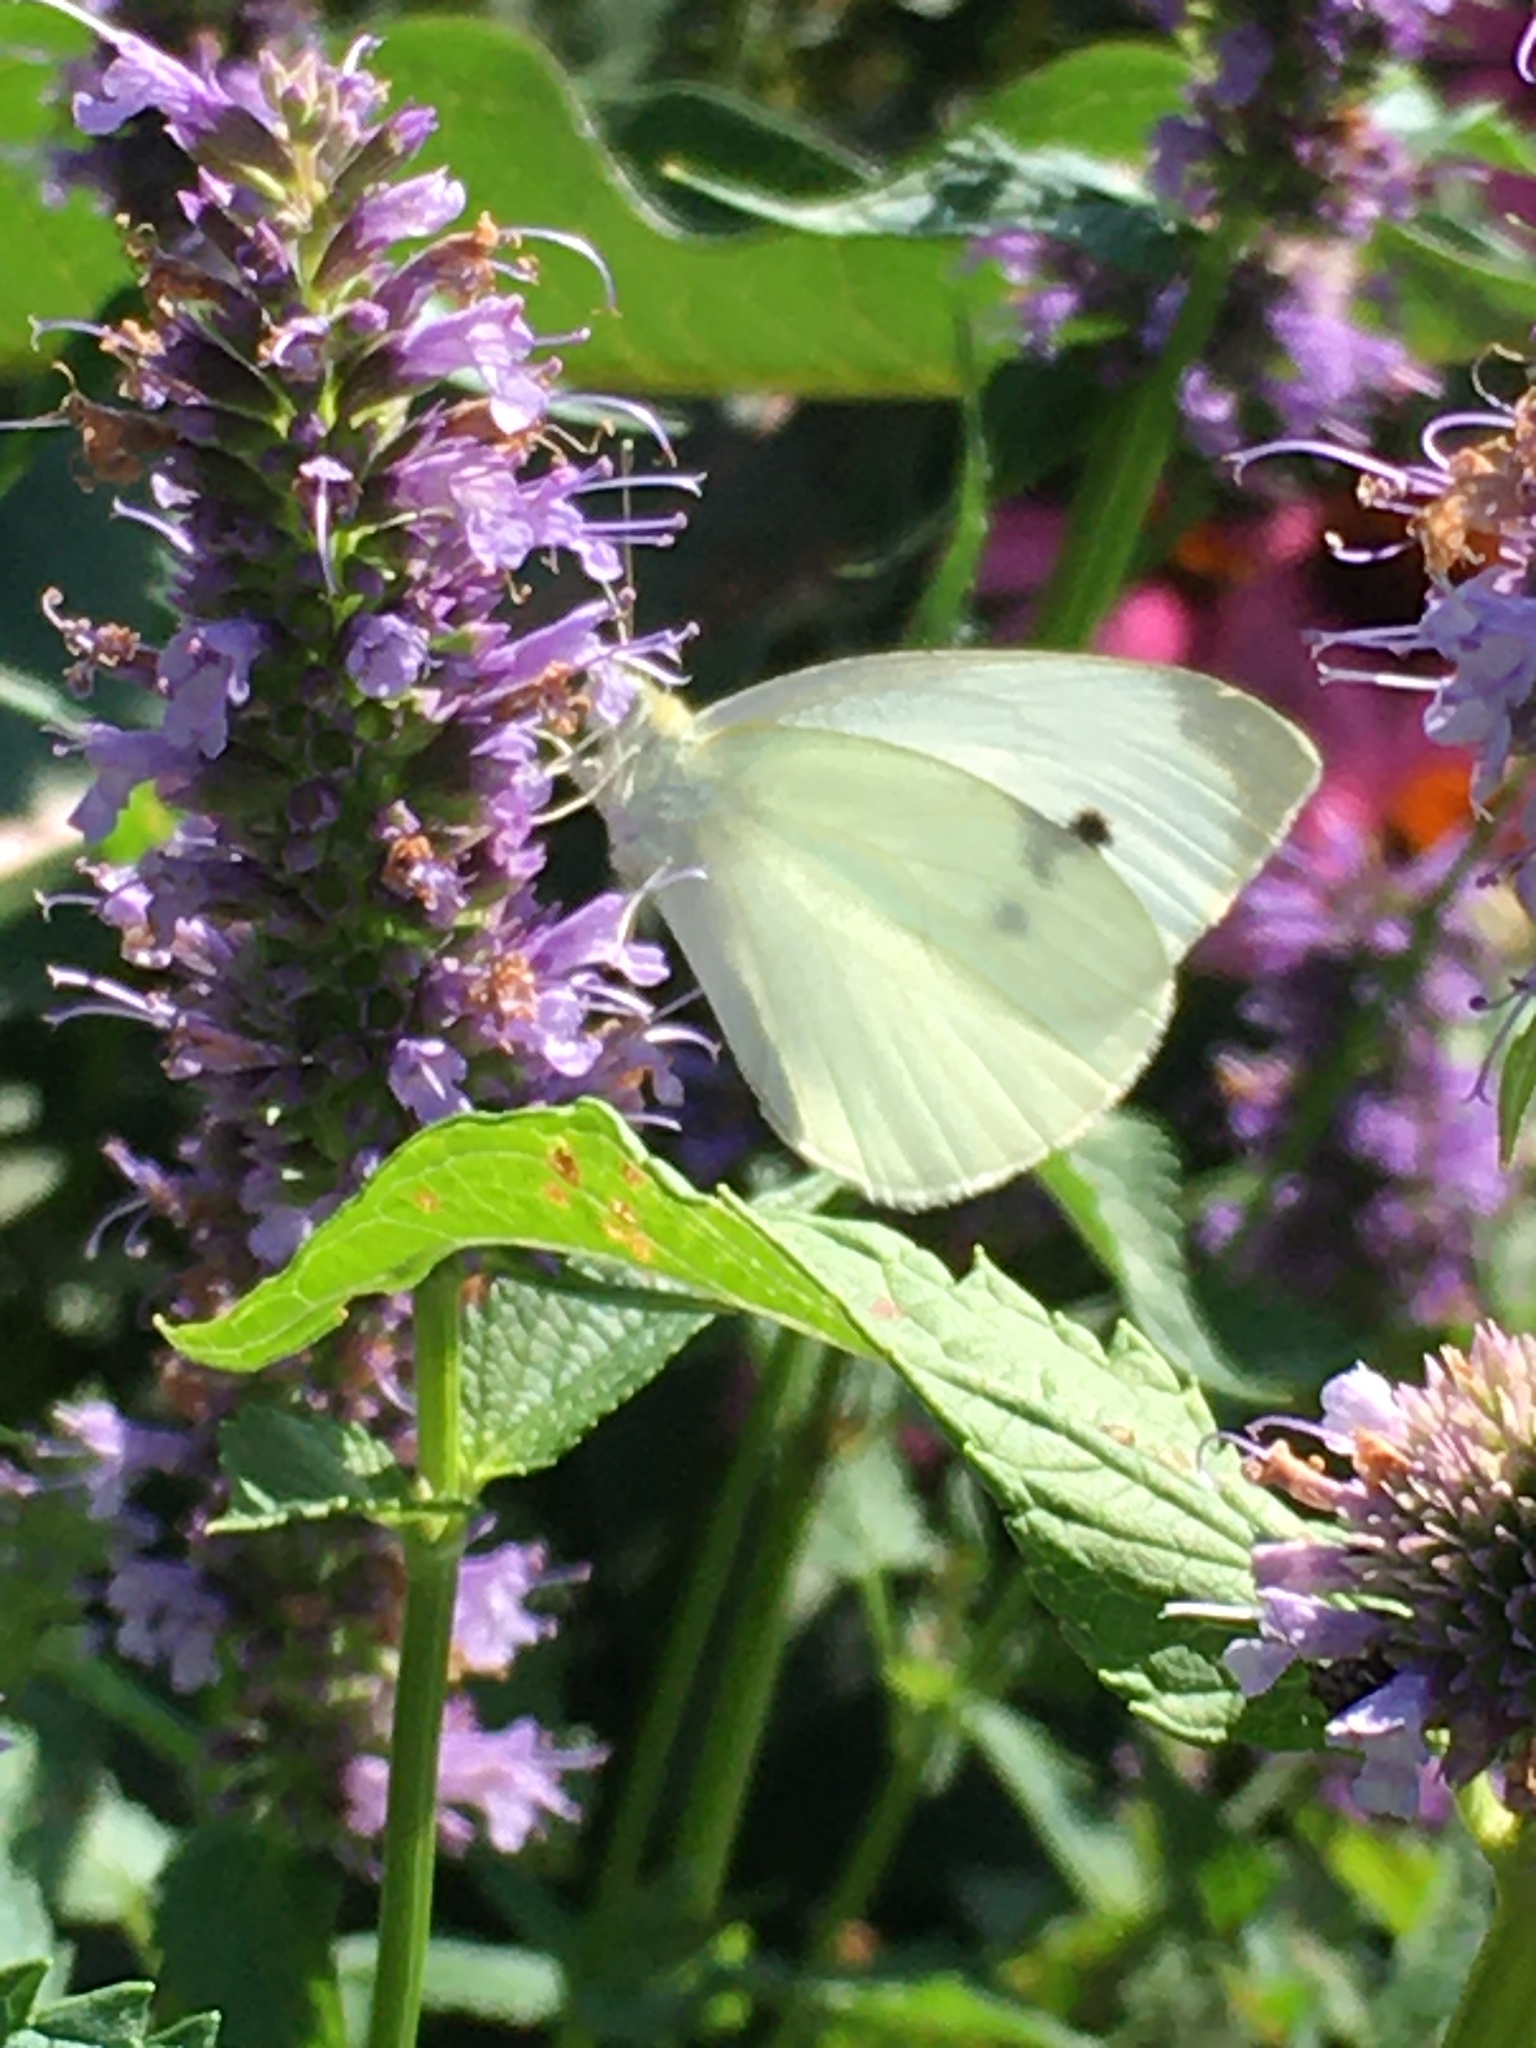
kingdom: Animalia
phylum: Arthropoda
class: Insecta
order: Lepidoptera
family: Pieridae
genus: Pieris
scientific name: Pieris rapae
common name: Small white
